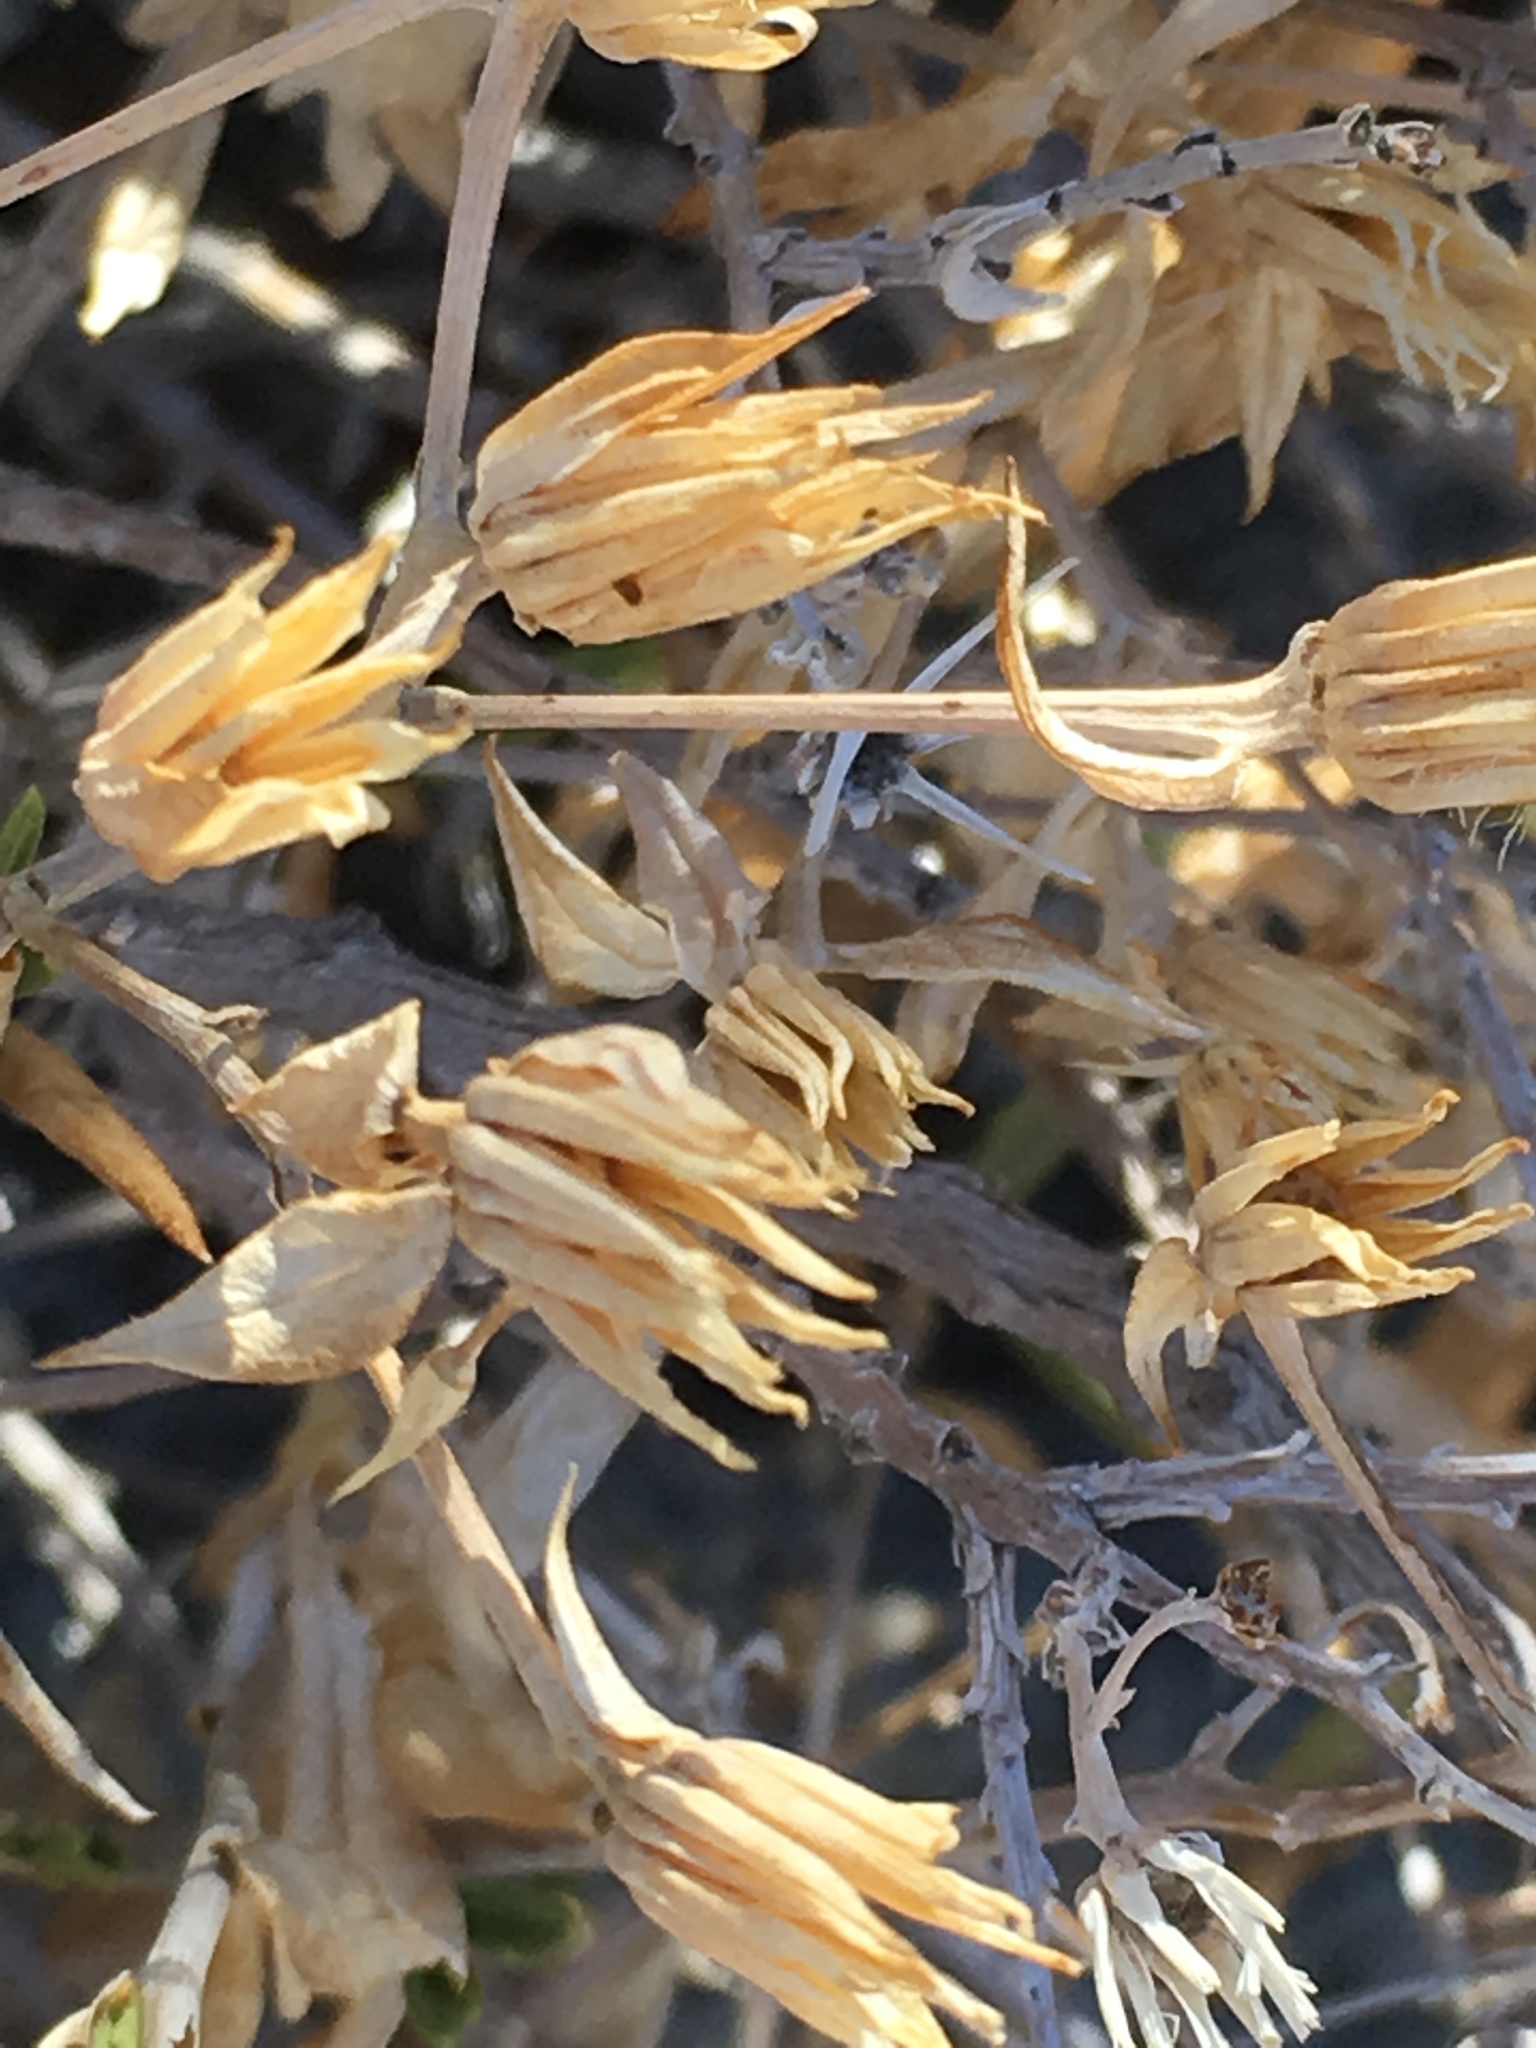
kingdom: Plantae
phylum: Tracheophyta
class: Magnoliopsida
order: Asterales
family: Asteraceae
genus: Trixis
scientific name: Trixis californica
